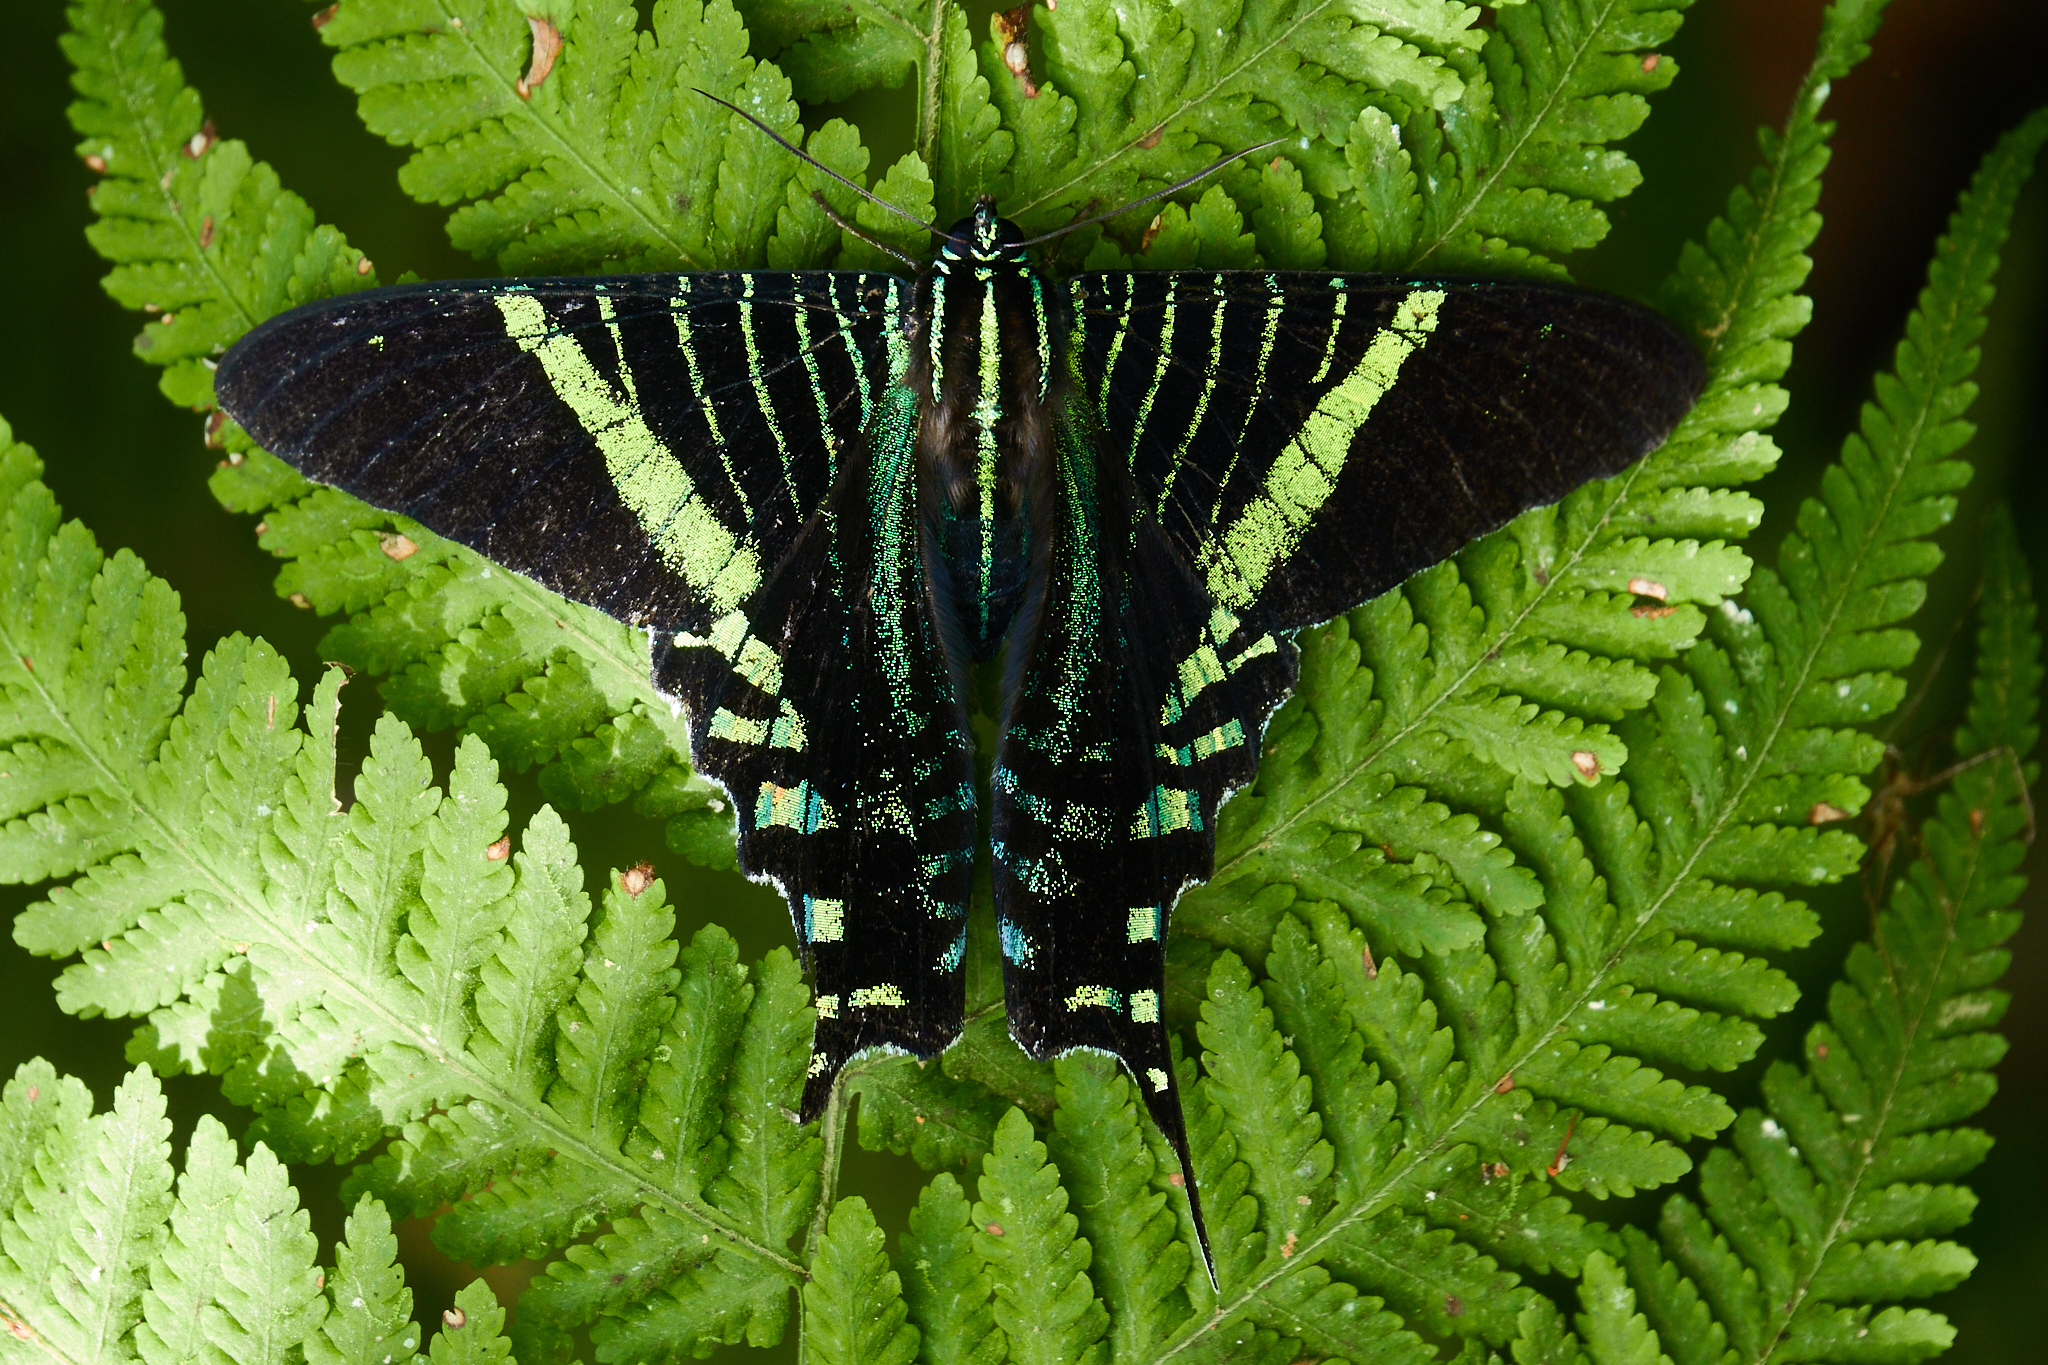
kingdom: Animalia
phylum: Arthropoda
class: Insecta
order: Lepidoptera
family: Uraniidae
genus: Urania
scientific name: Urania fulgens
